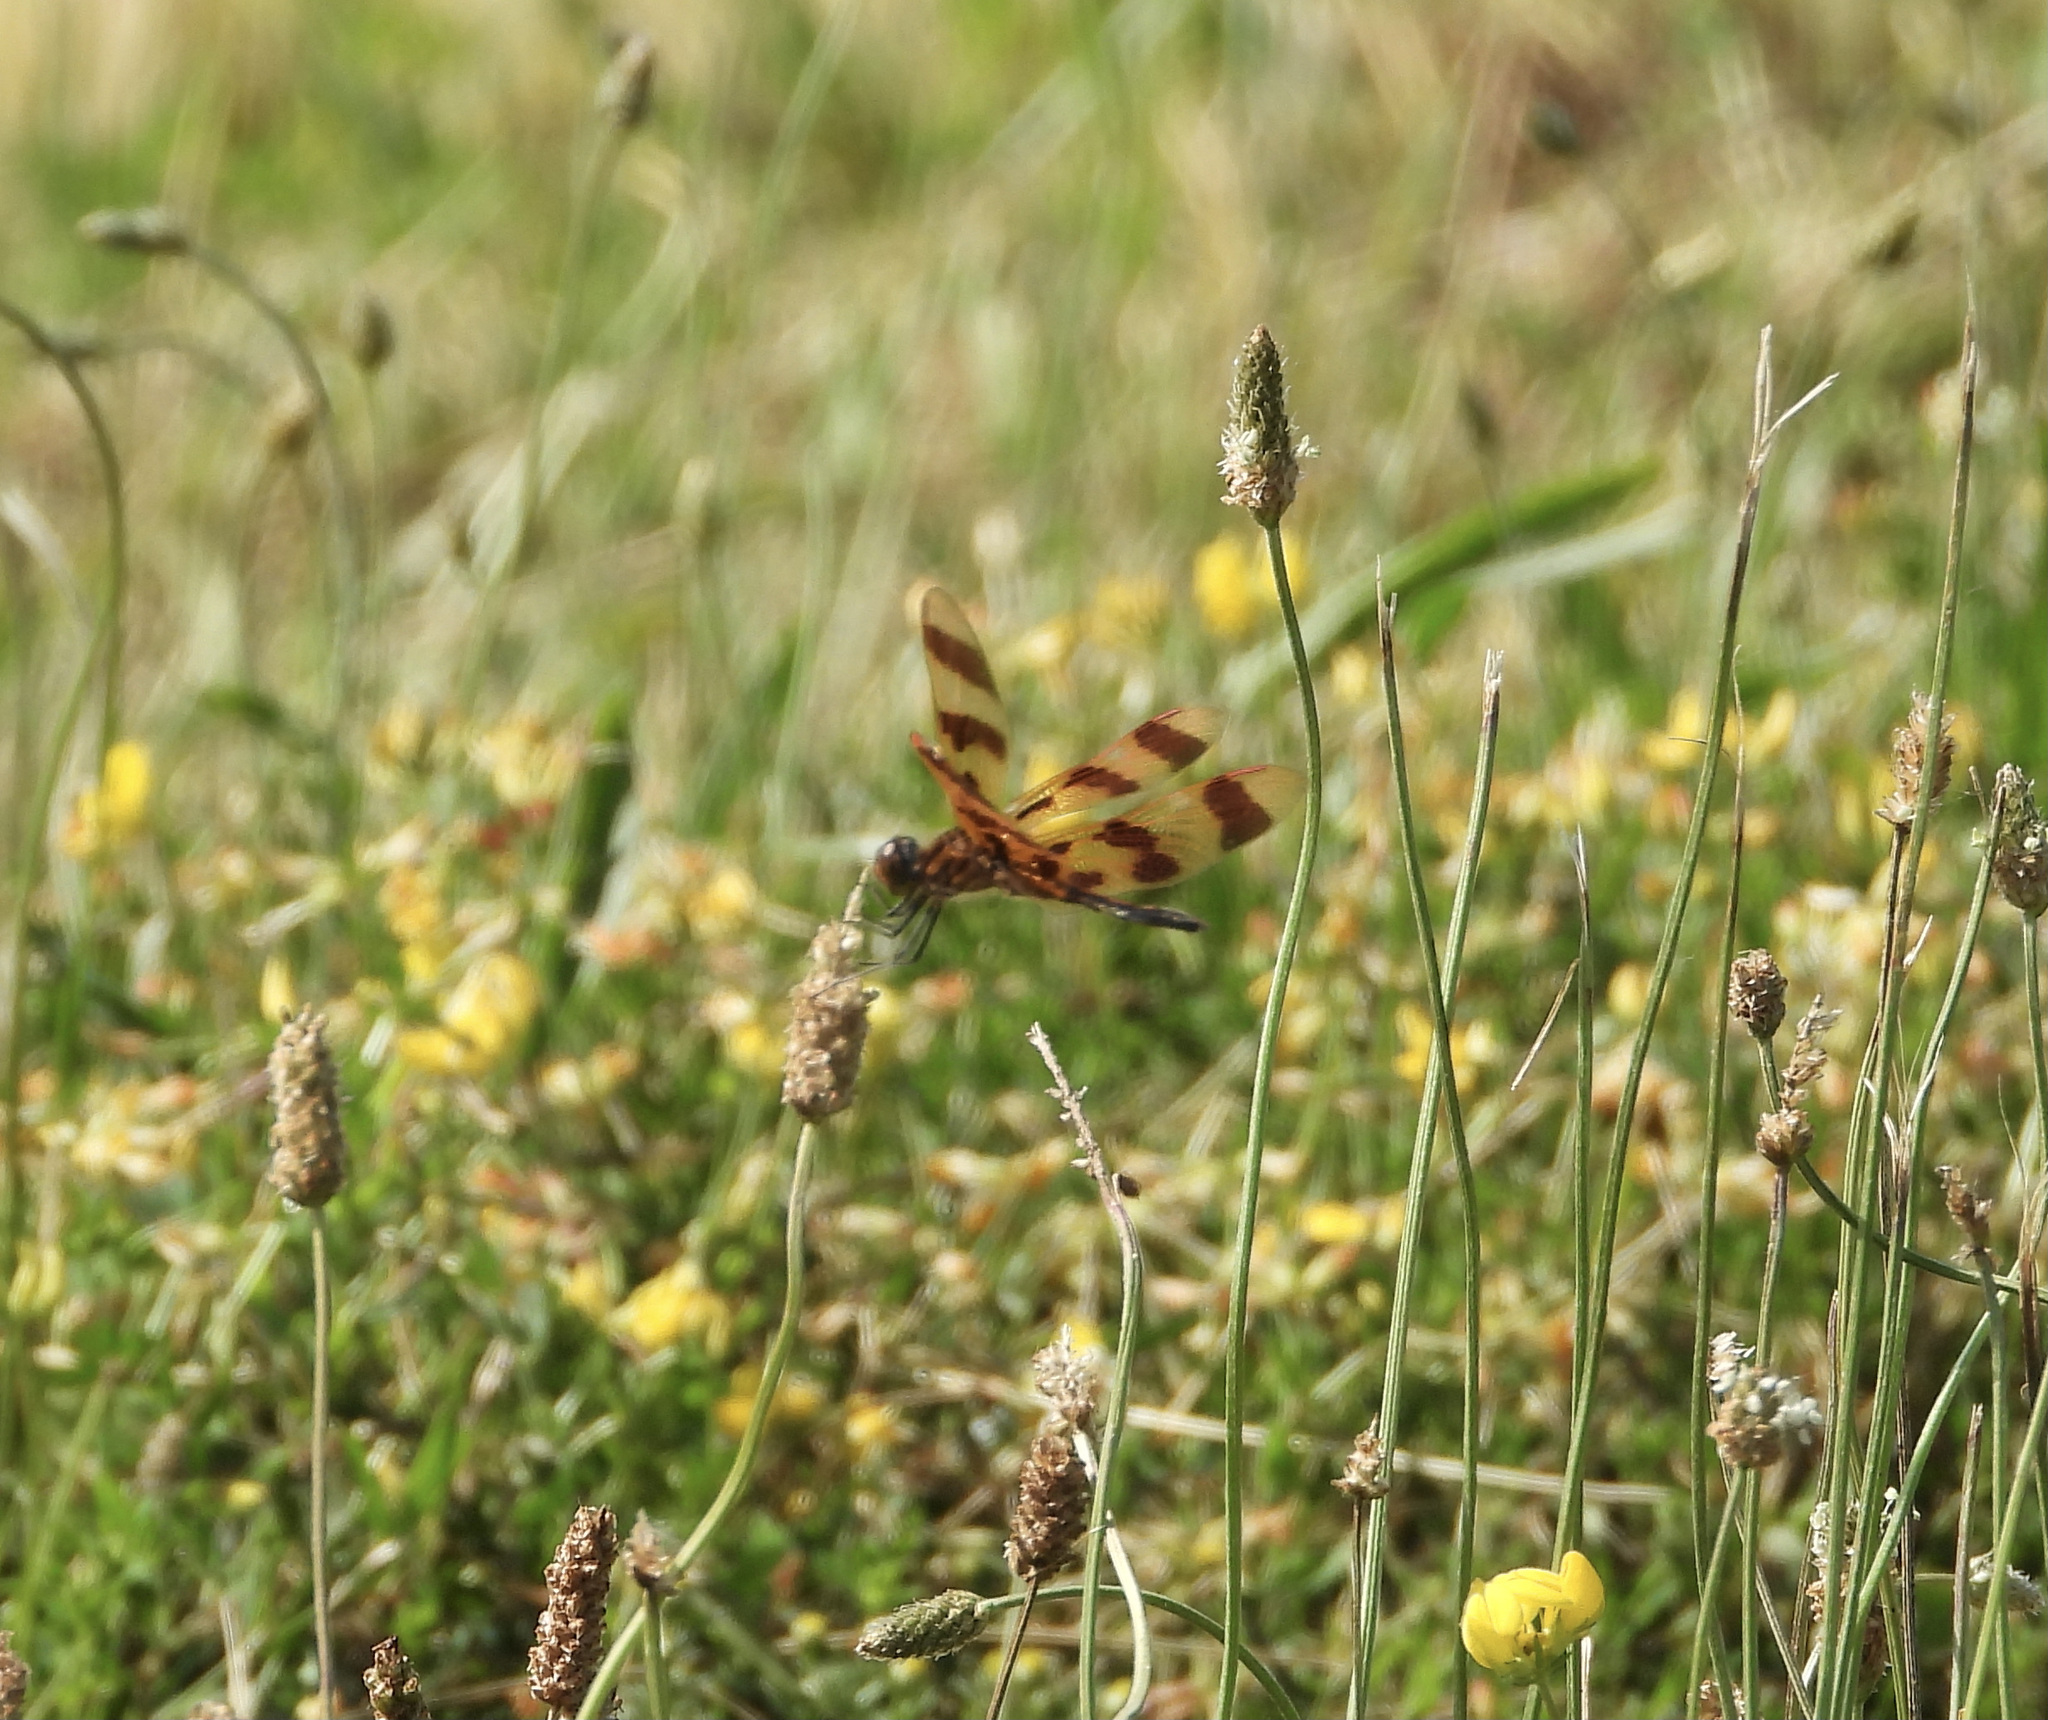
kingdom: Animalia
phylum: Arthropoda
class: Insecta
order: Odonata
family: Libellulidae
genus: Celithemis
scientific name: Celithemis eponina
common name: Halloween pennant
